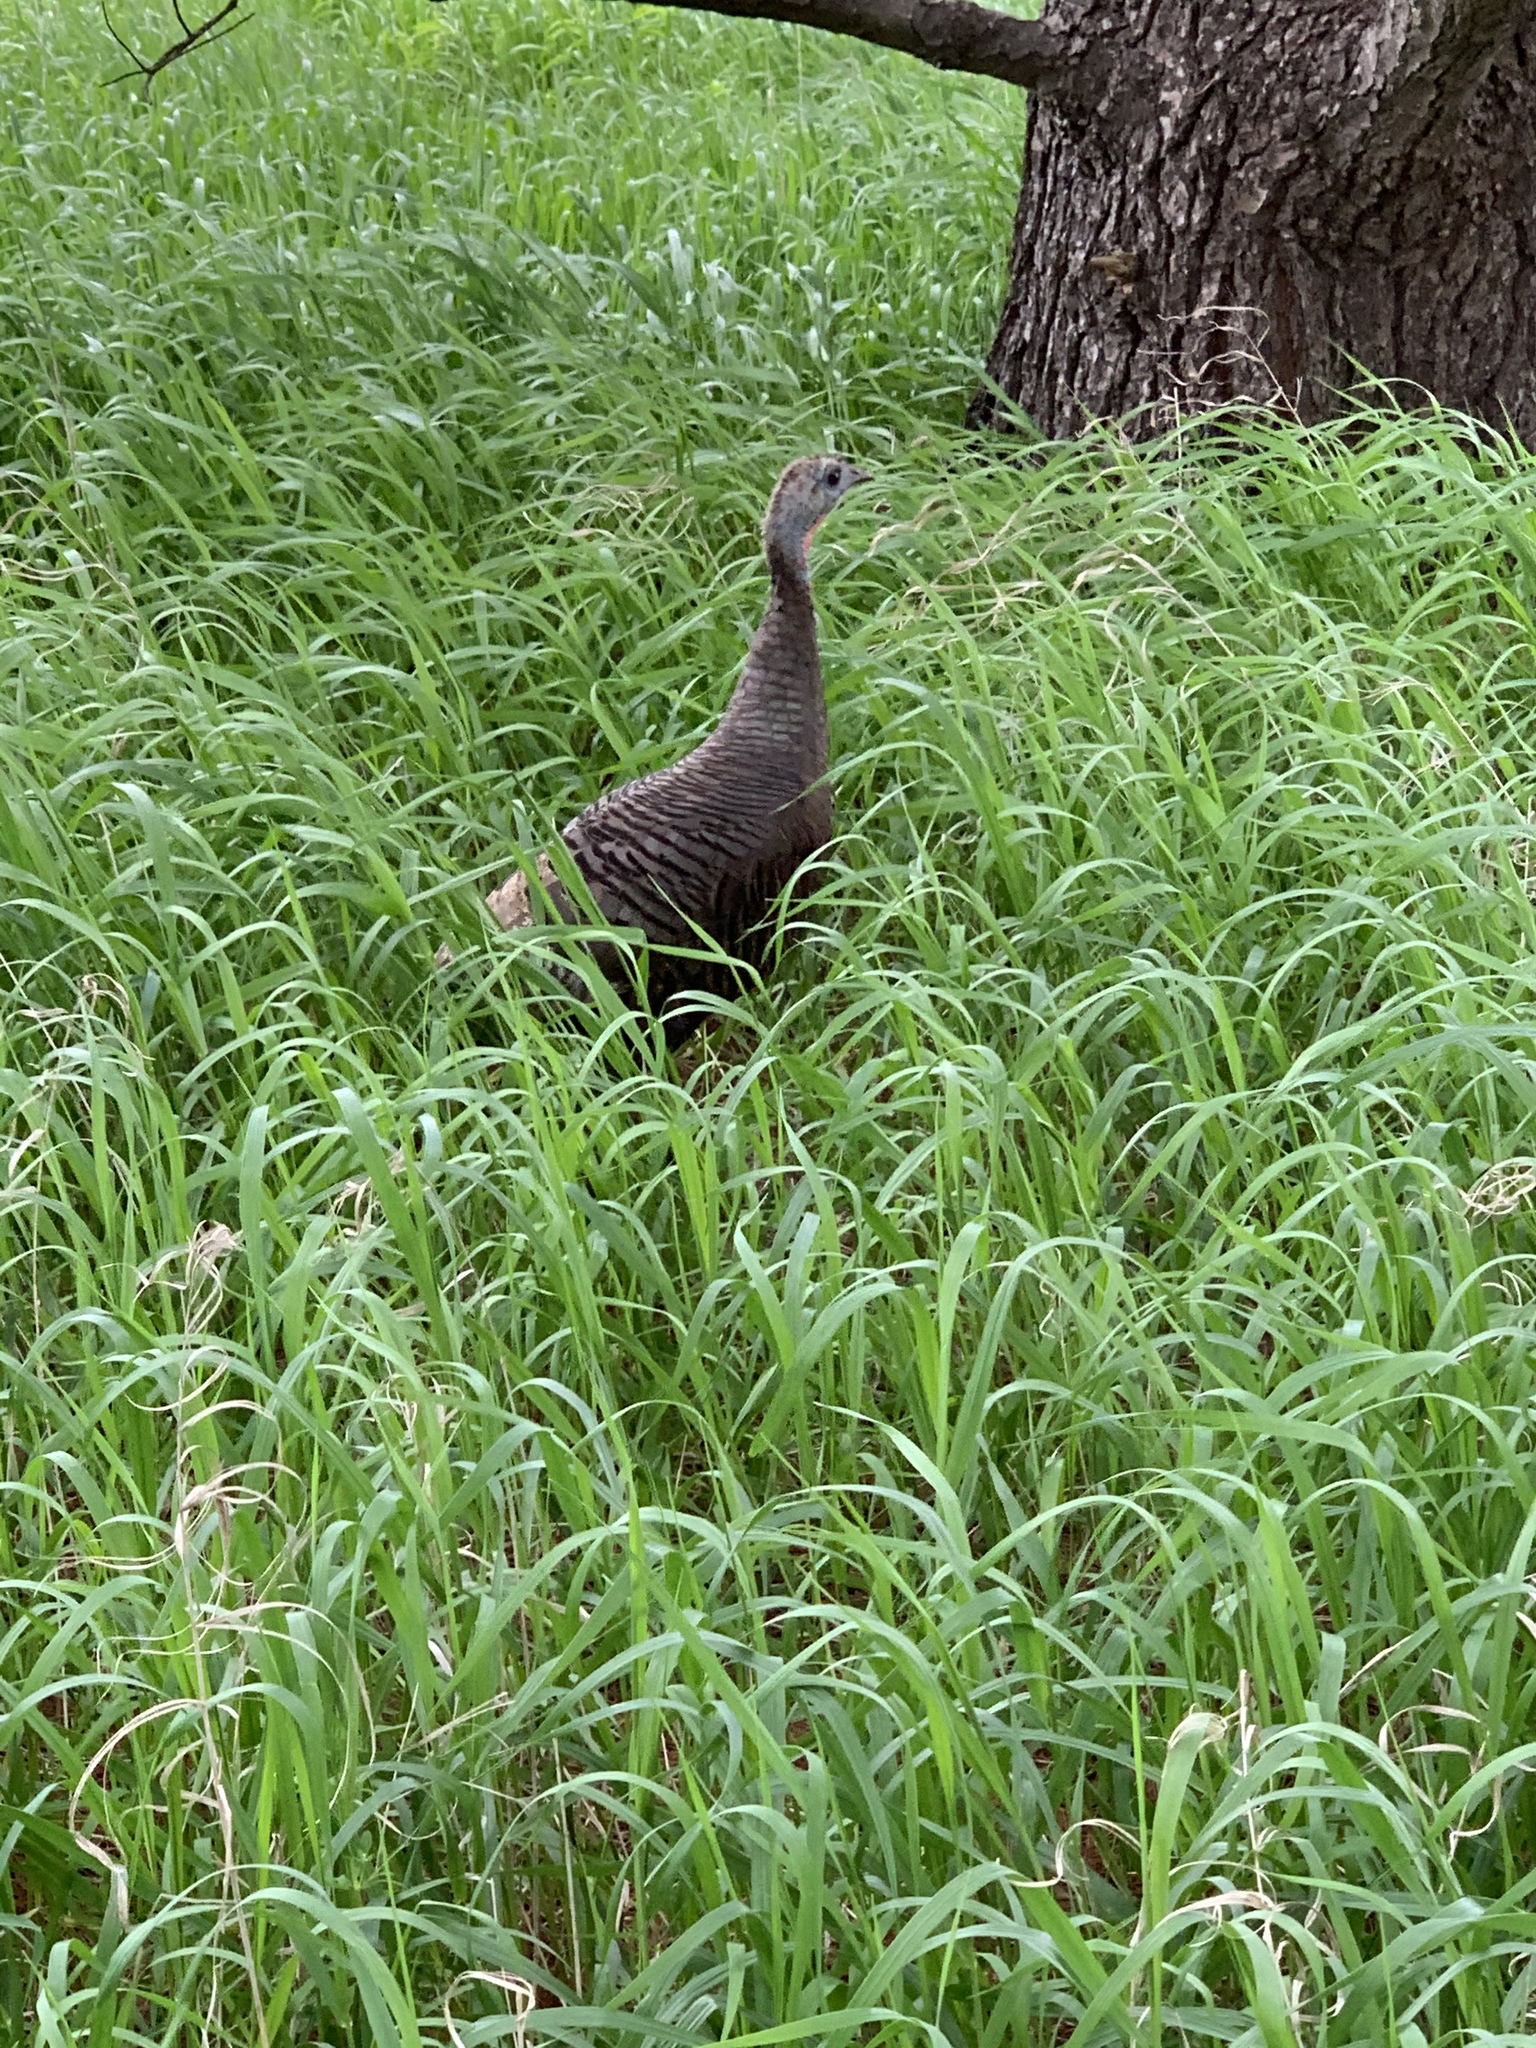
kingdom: Animalia
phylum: Chordata
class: Aves
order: Galliformes
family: Phasianidae
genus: Meleagris
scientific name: Meleagris gallopavo
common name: Wild turkey
